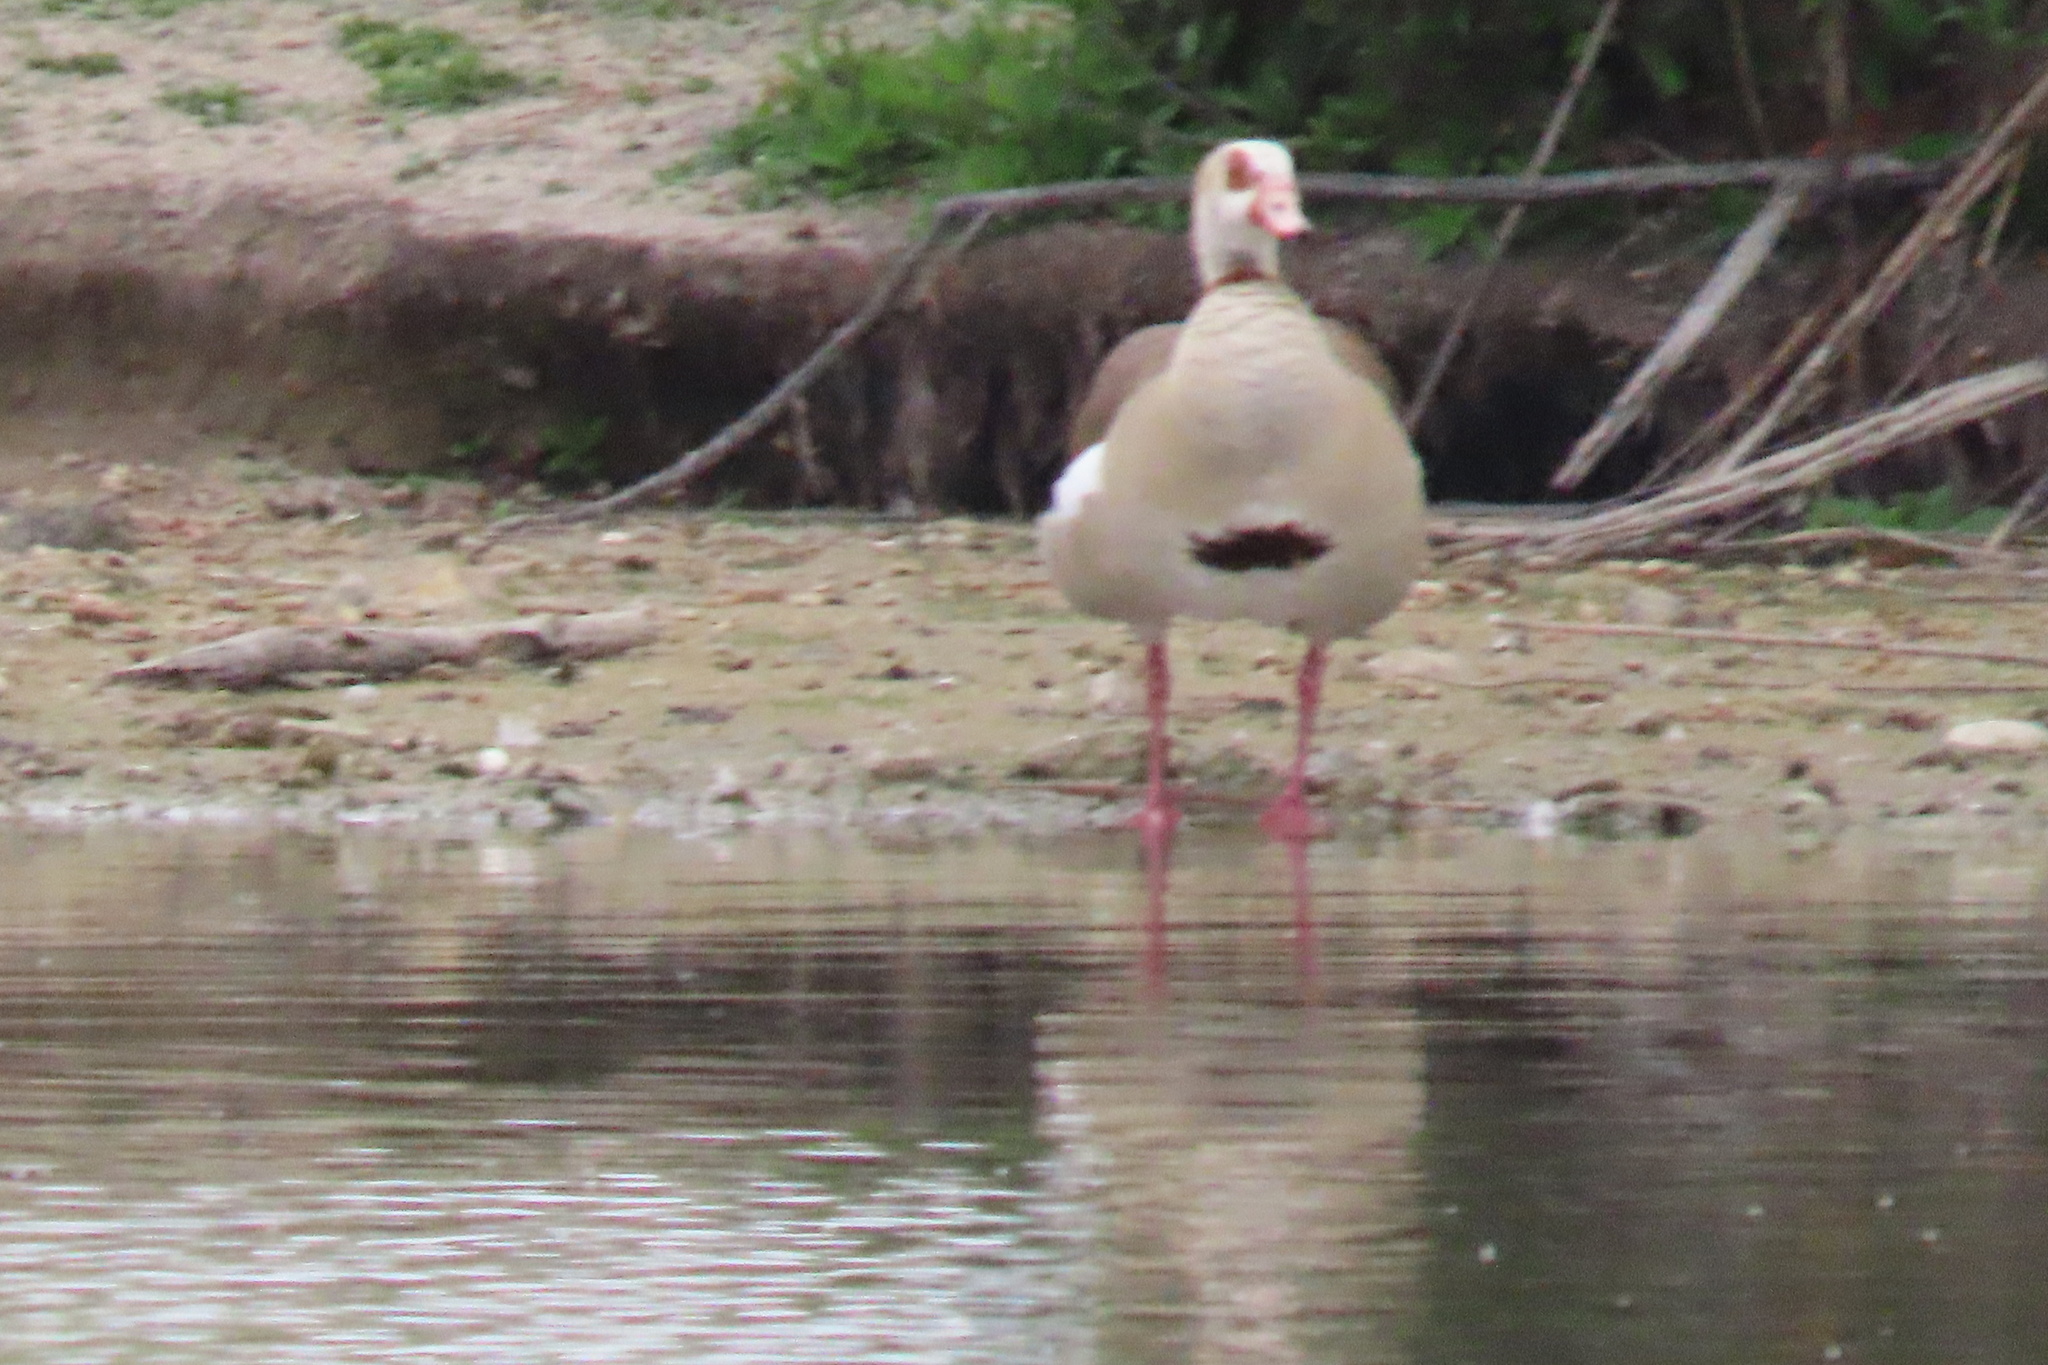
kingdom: Animalia
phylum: Chordata
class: Aves
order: Anseriformes
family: Anatidae
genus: Alopochen
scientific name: Alopochen aegyptiaca
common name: Egyptian goose
